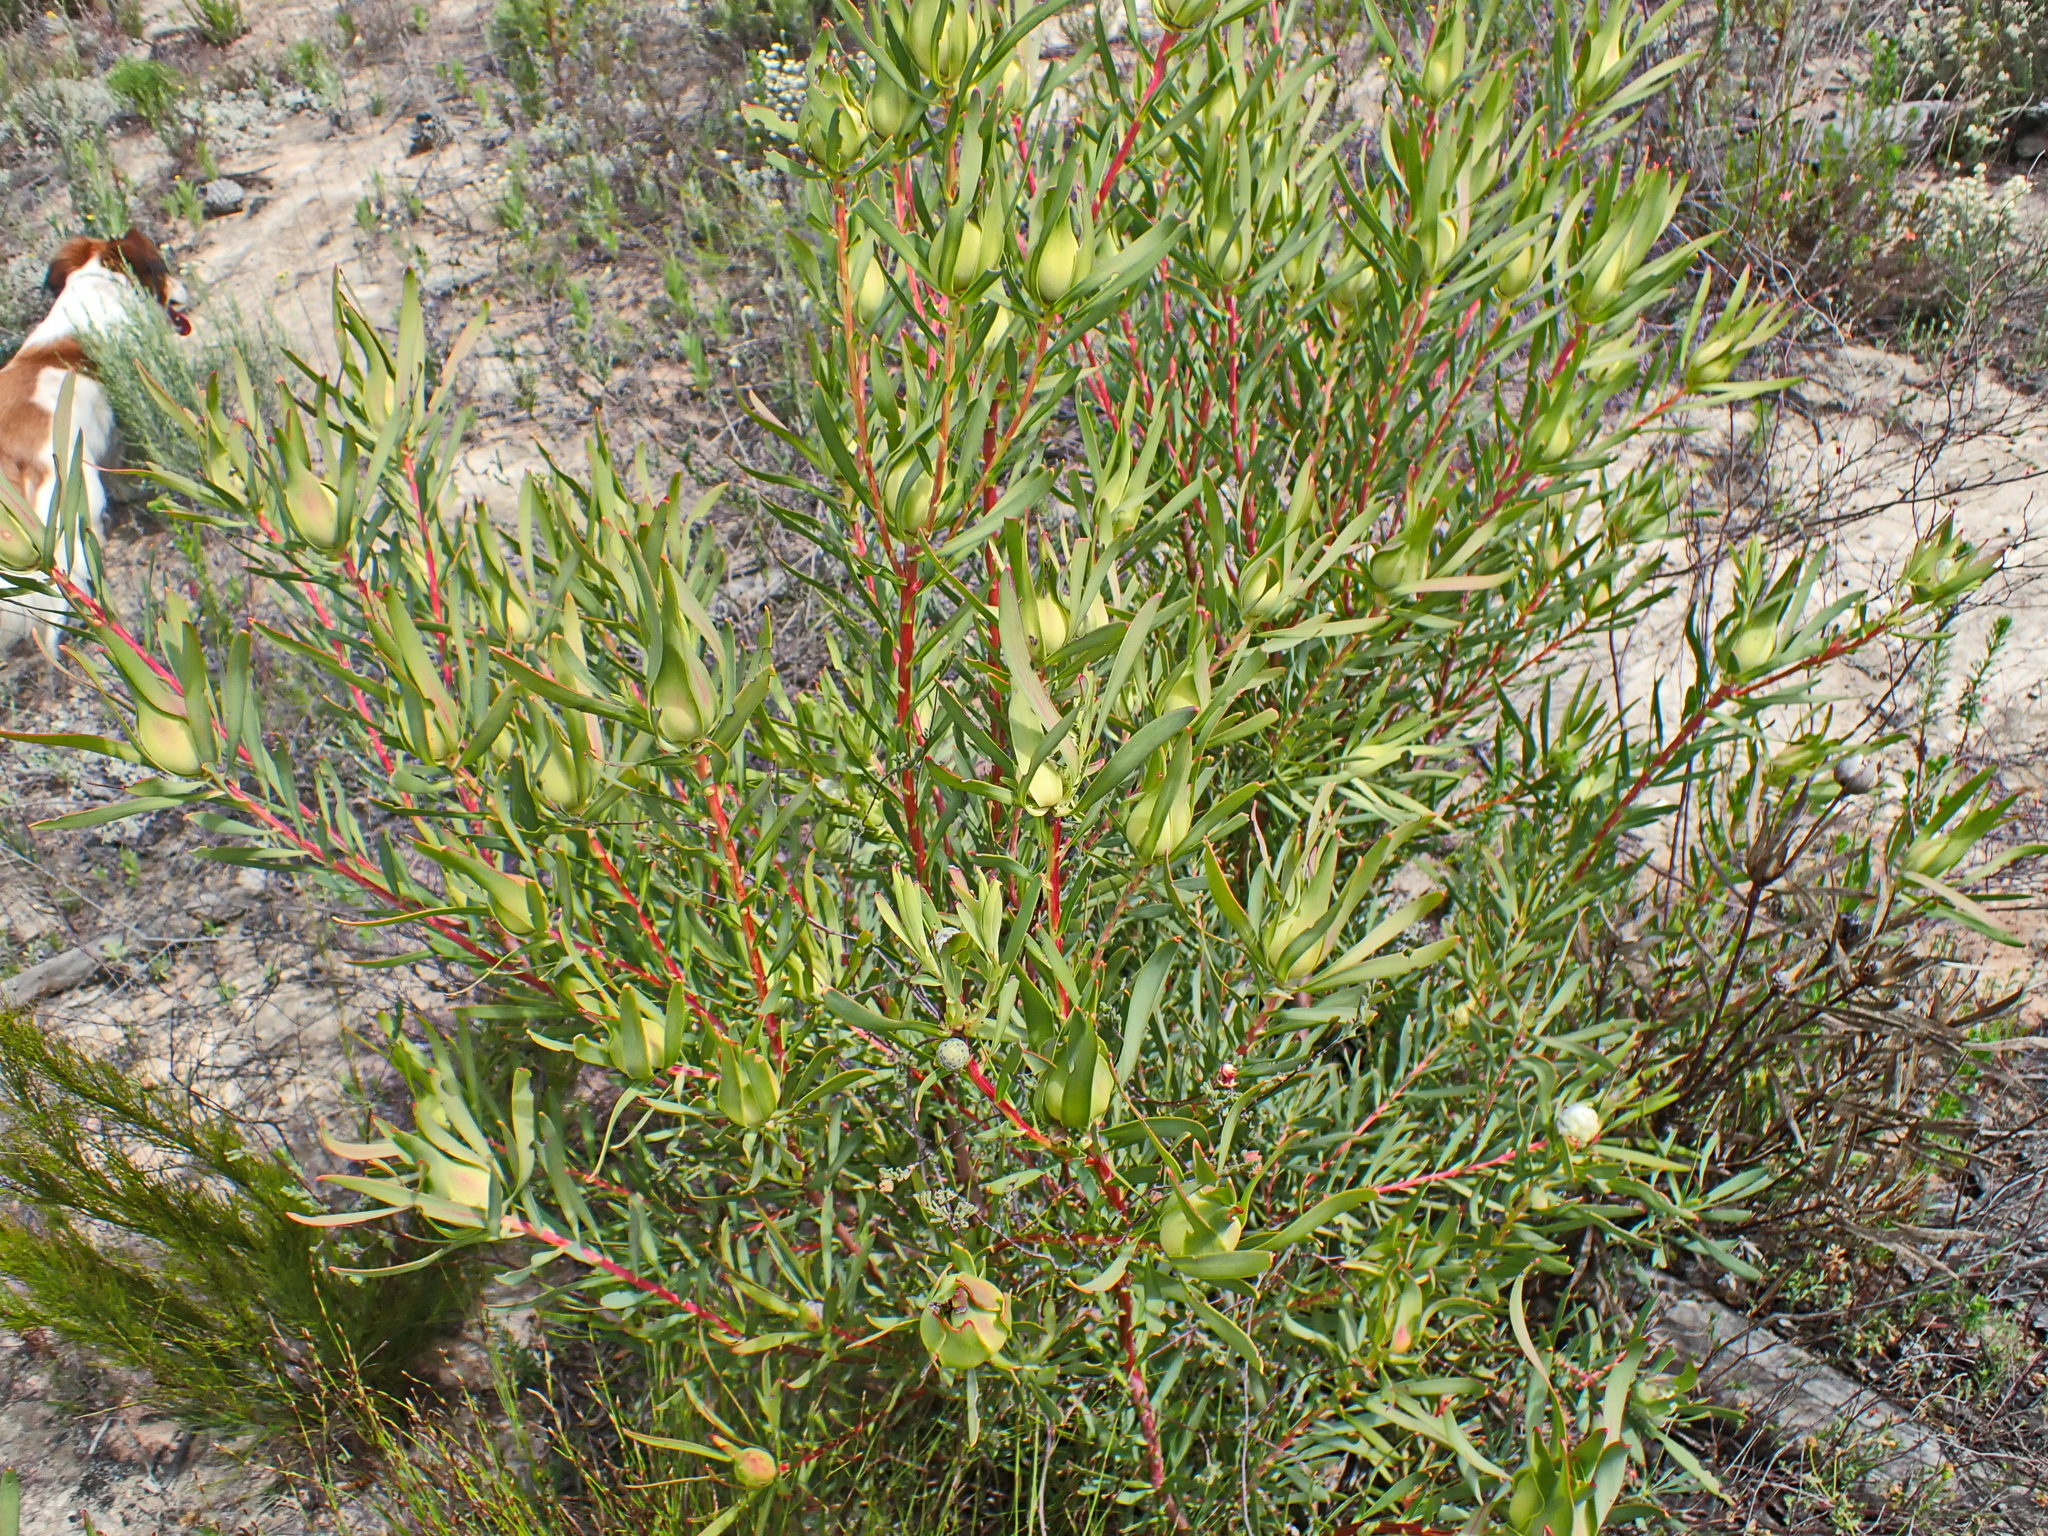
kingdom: Plantae
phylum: Tracheophyta
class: Magnoliopsida
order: Proteales
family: Proteaceae
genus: Leucadendron
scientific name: Leucadendron salignum
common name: Common sunshine conebush
